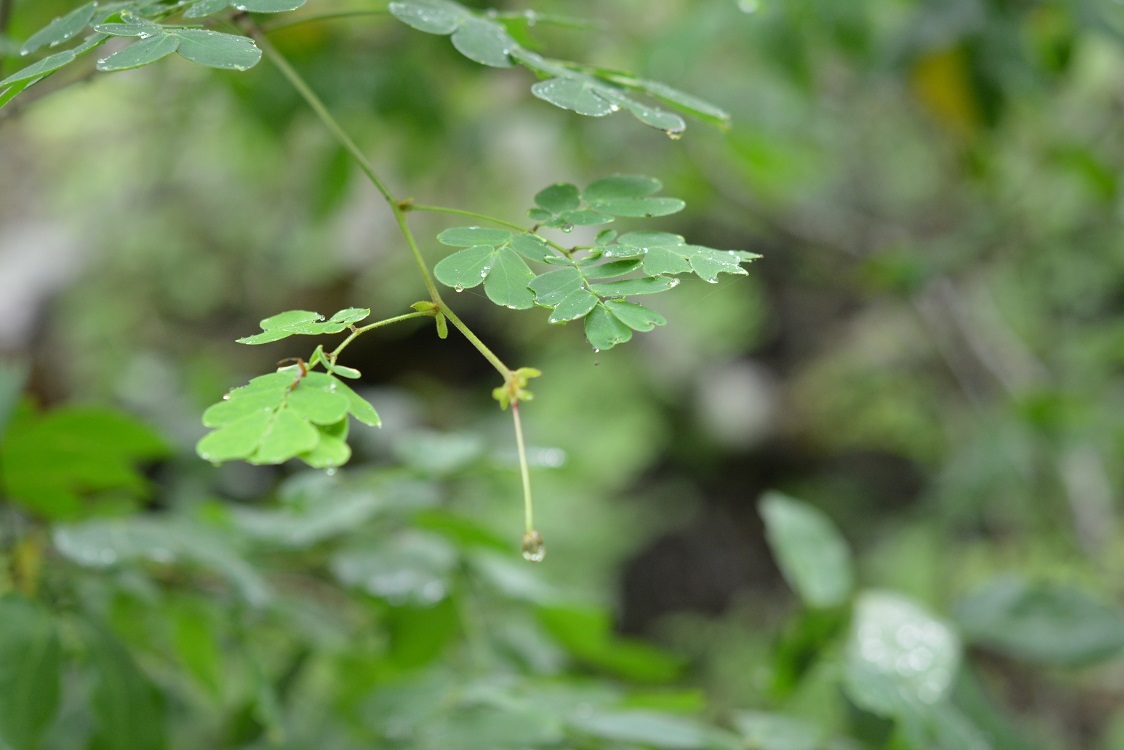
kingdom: Plantae
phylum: Tracheophyta
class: Magnoliopsida
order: Fabales
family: Fabaceae
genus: Zapoteca
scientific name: Zapoteca formosa
